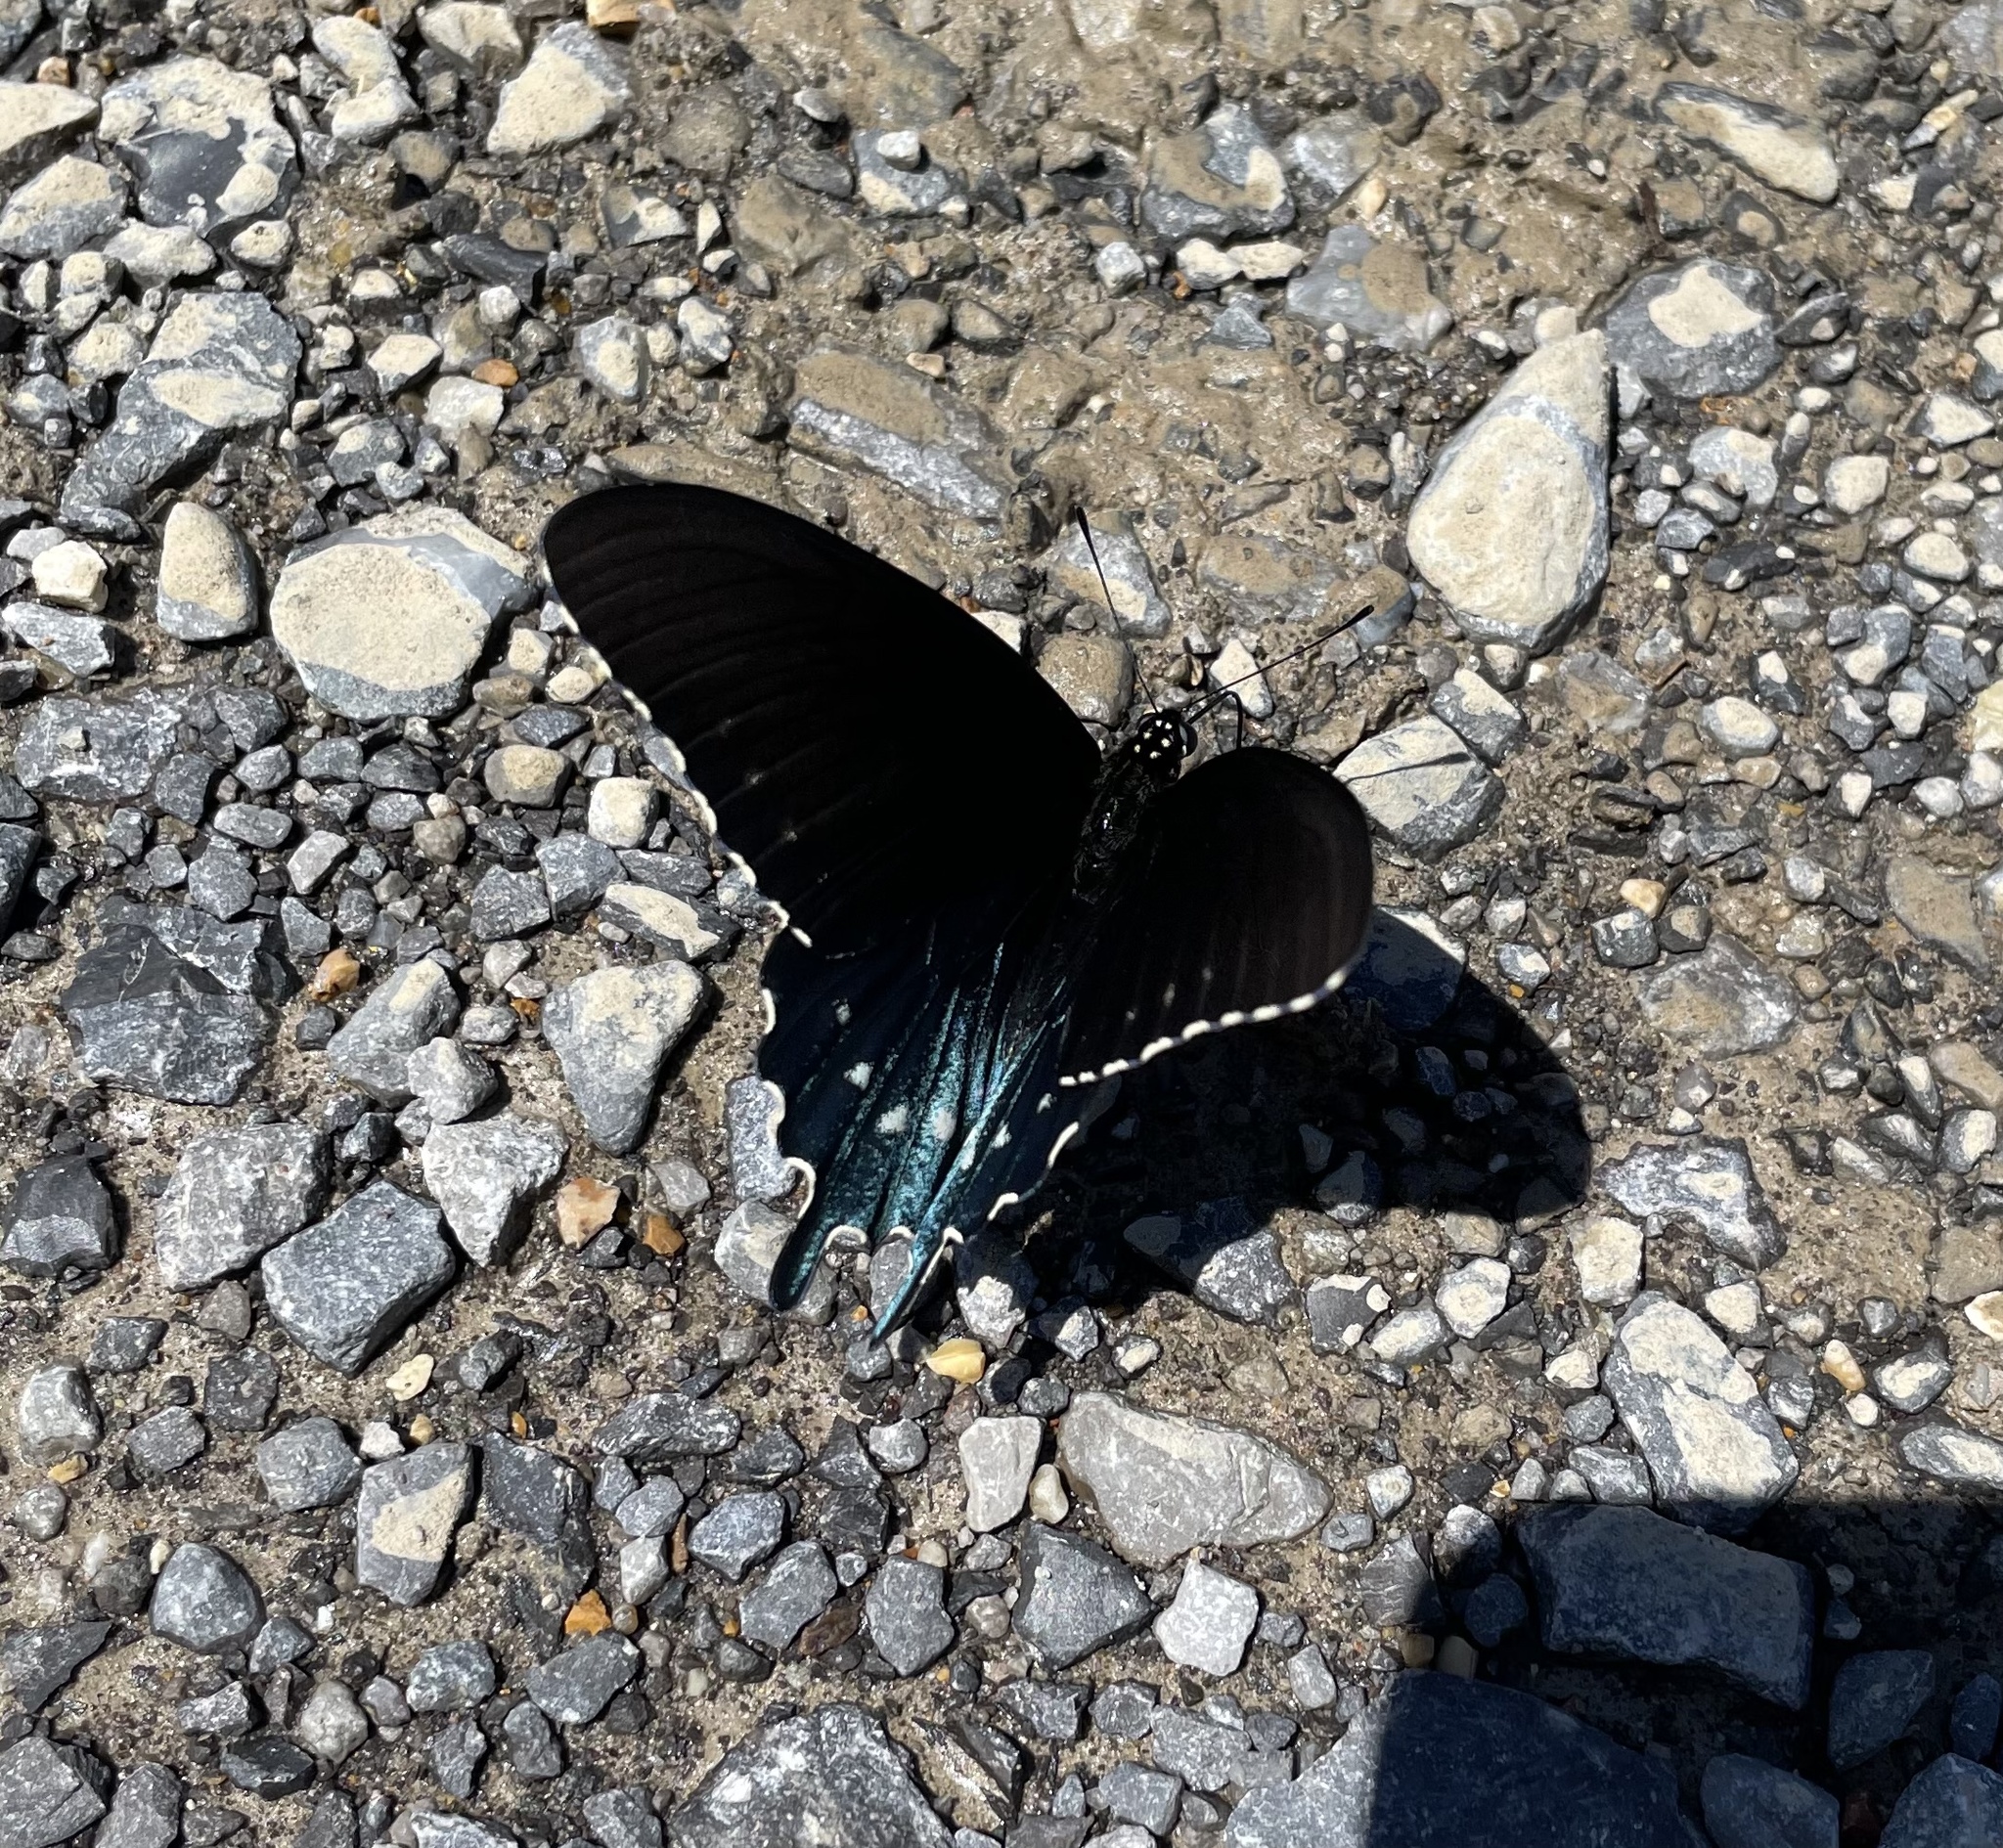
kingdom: Animalia
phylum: Arthropoda
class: Insecta
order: Lepidoptera
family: Papilionidae
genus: Battus
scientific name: Battus philenor
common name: Pipevine swallowtail
